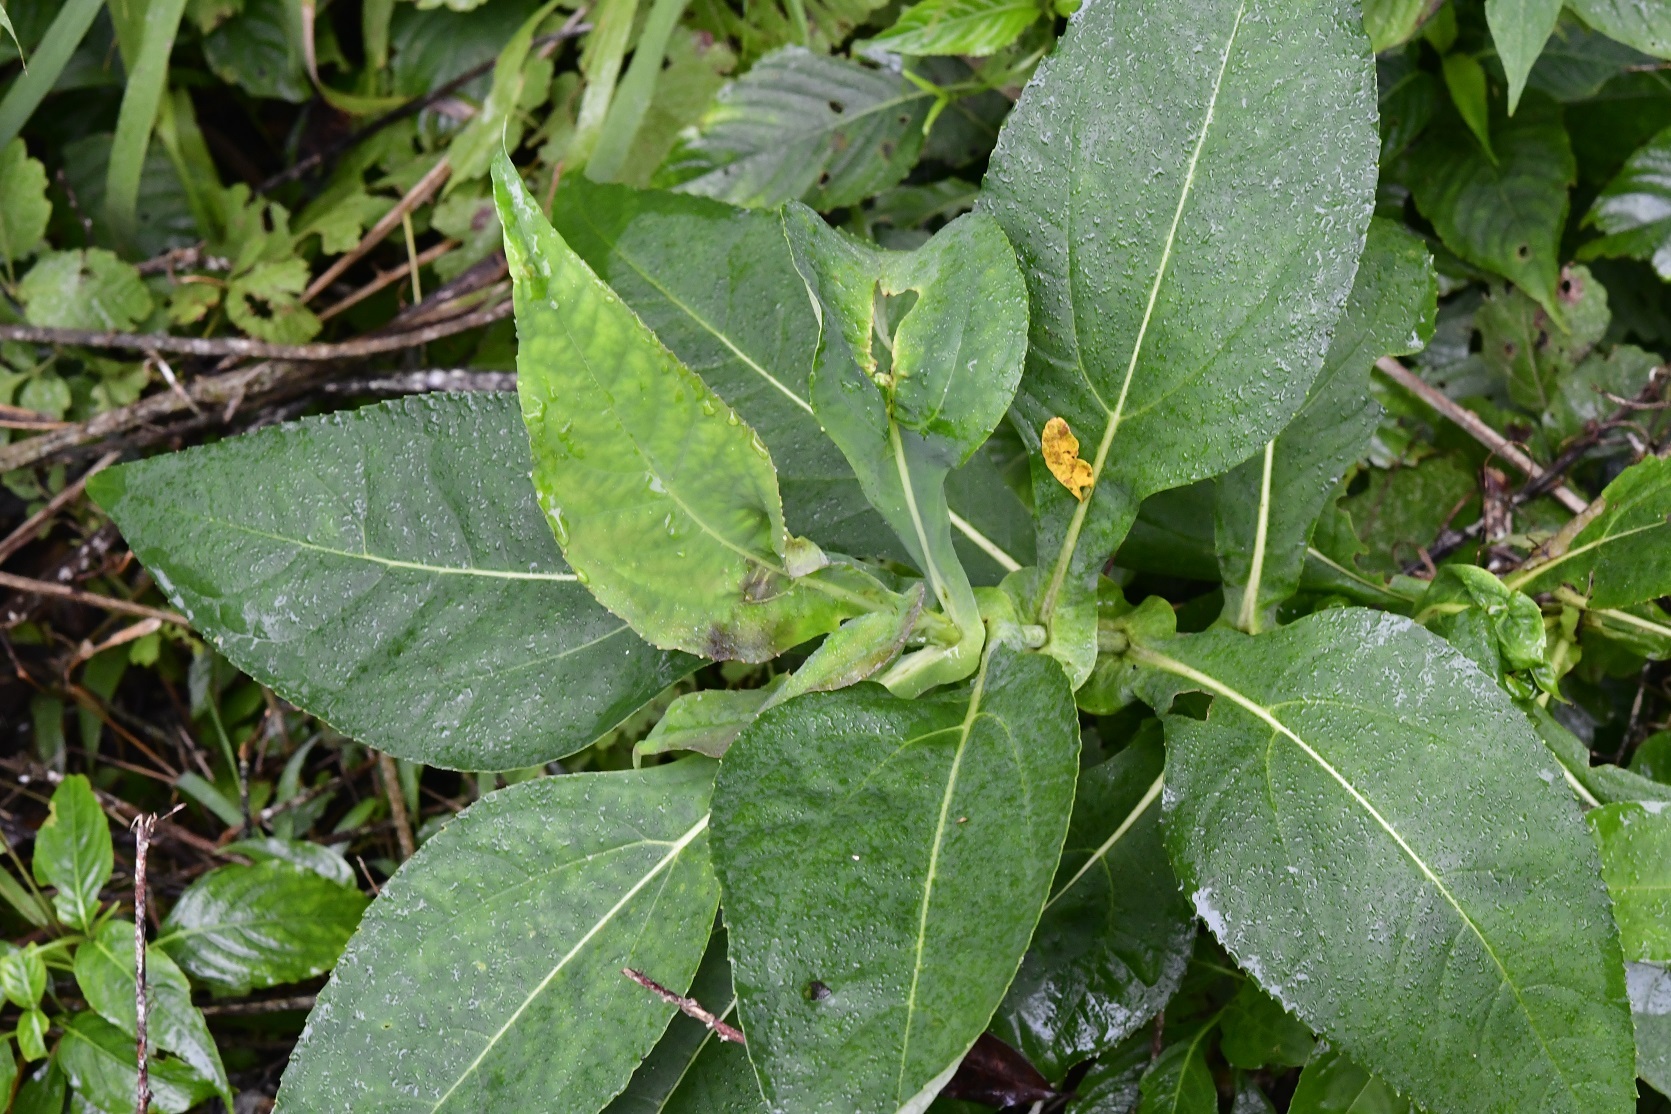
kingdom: Plantae
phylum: Tracheophyta
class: Magnoliopsida
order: Asterales
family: Asteraceae
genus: Desmanthodium
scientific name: Desmanthodium perfoliatum
